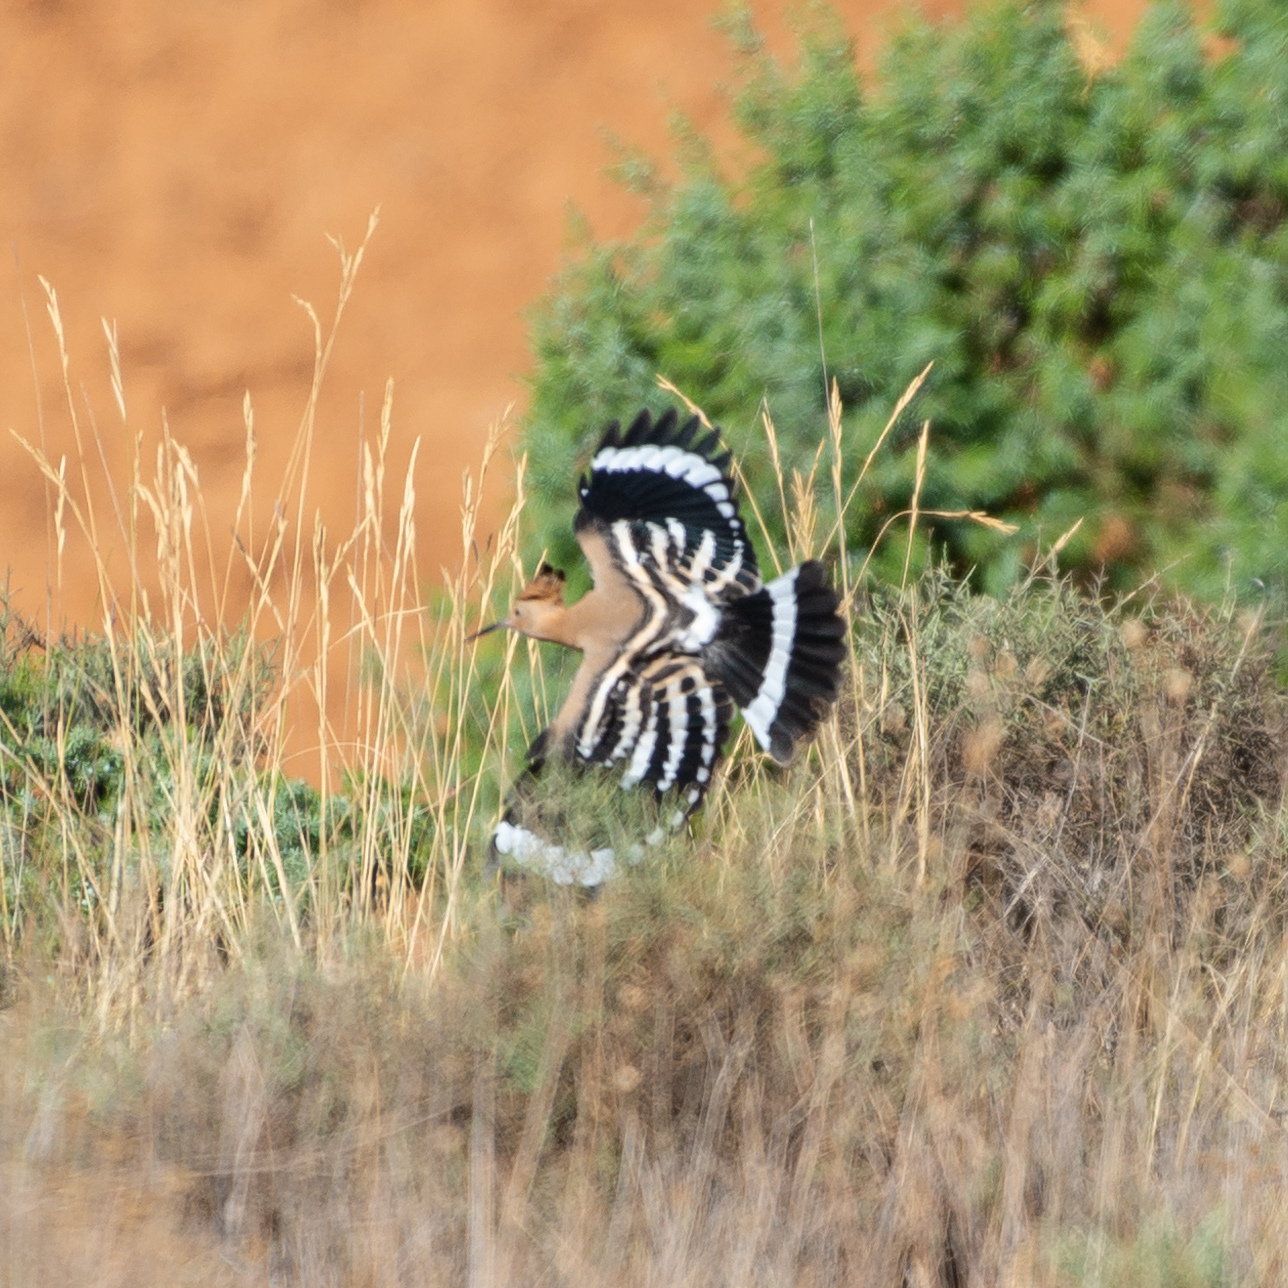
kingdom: Animalia
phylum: Chordata
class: Aves
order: Bucerotiformes
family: Upupidae
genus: Upupa
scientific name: Upupa epops
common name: Eurasian hoopoe
